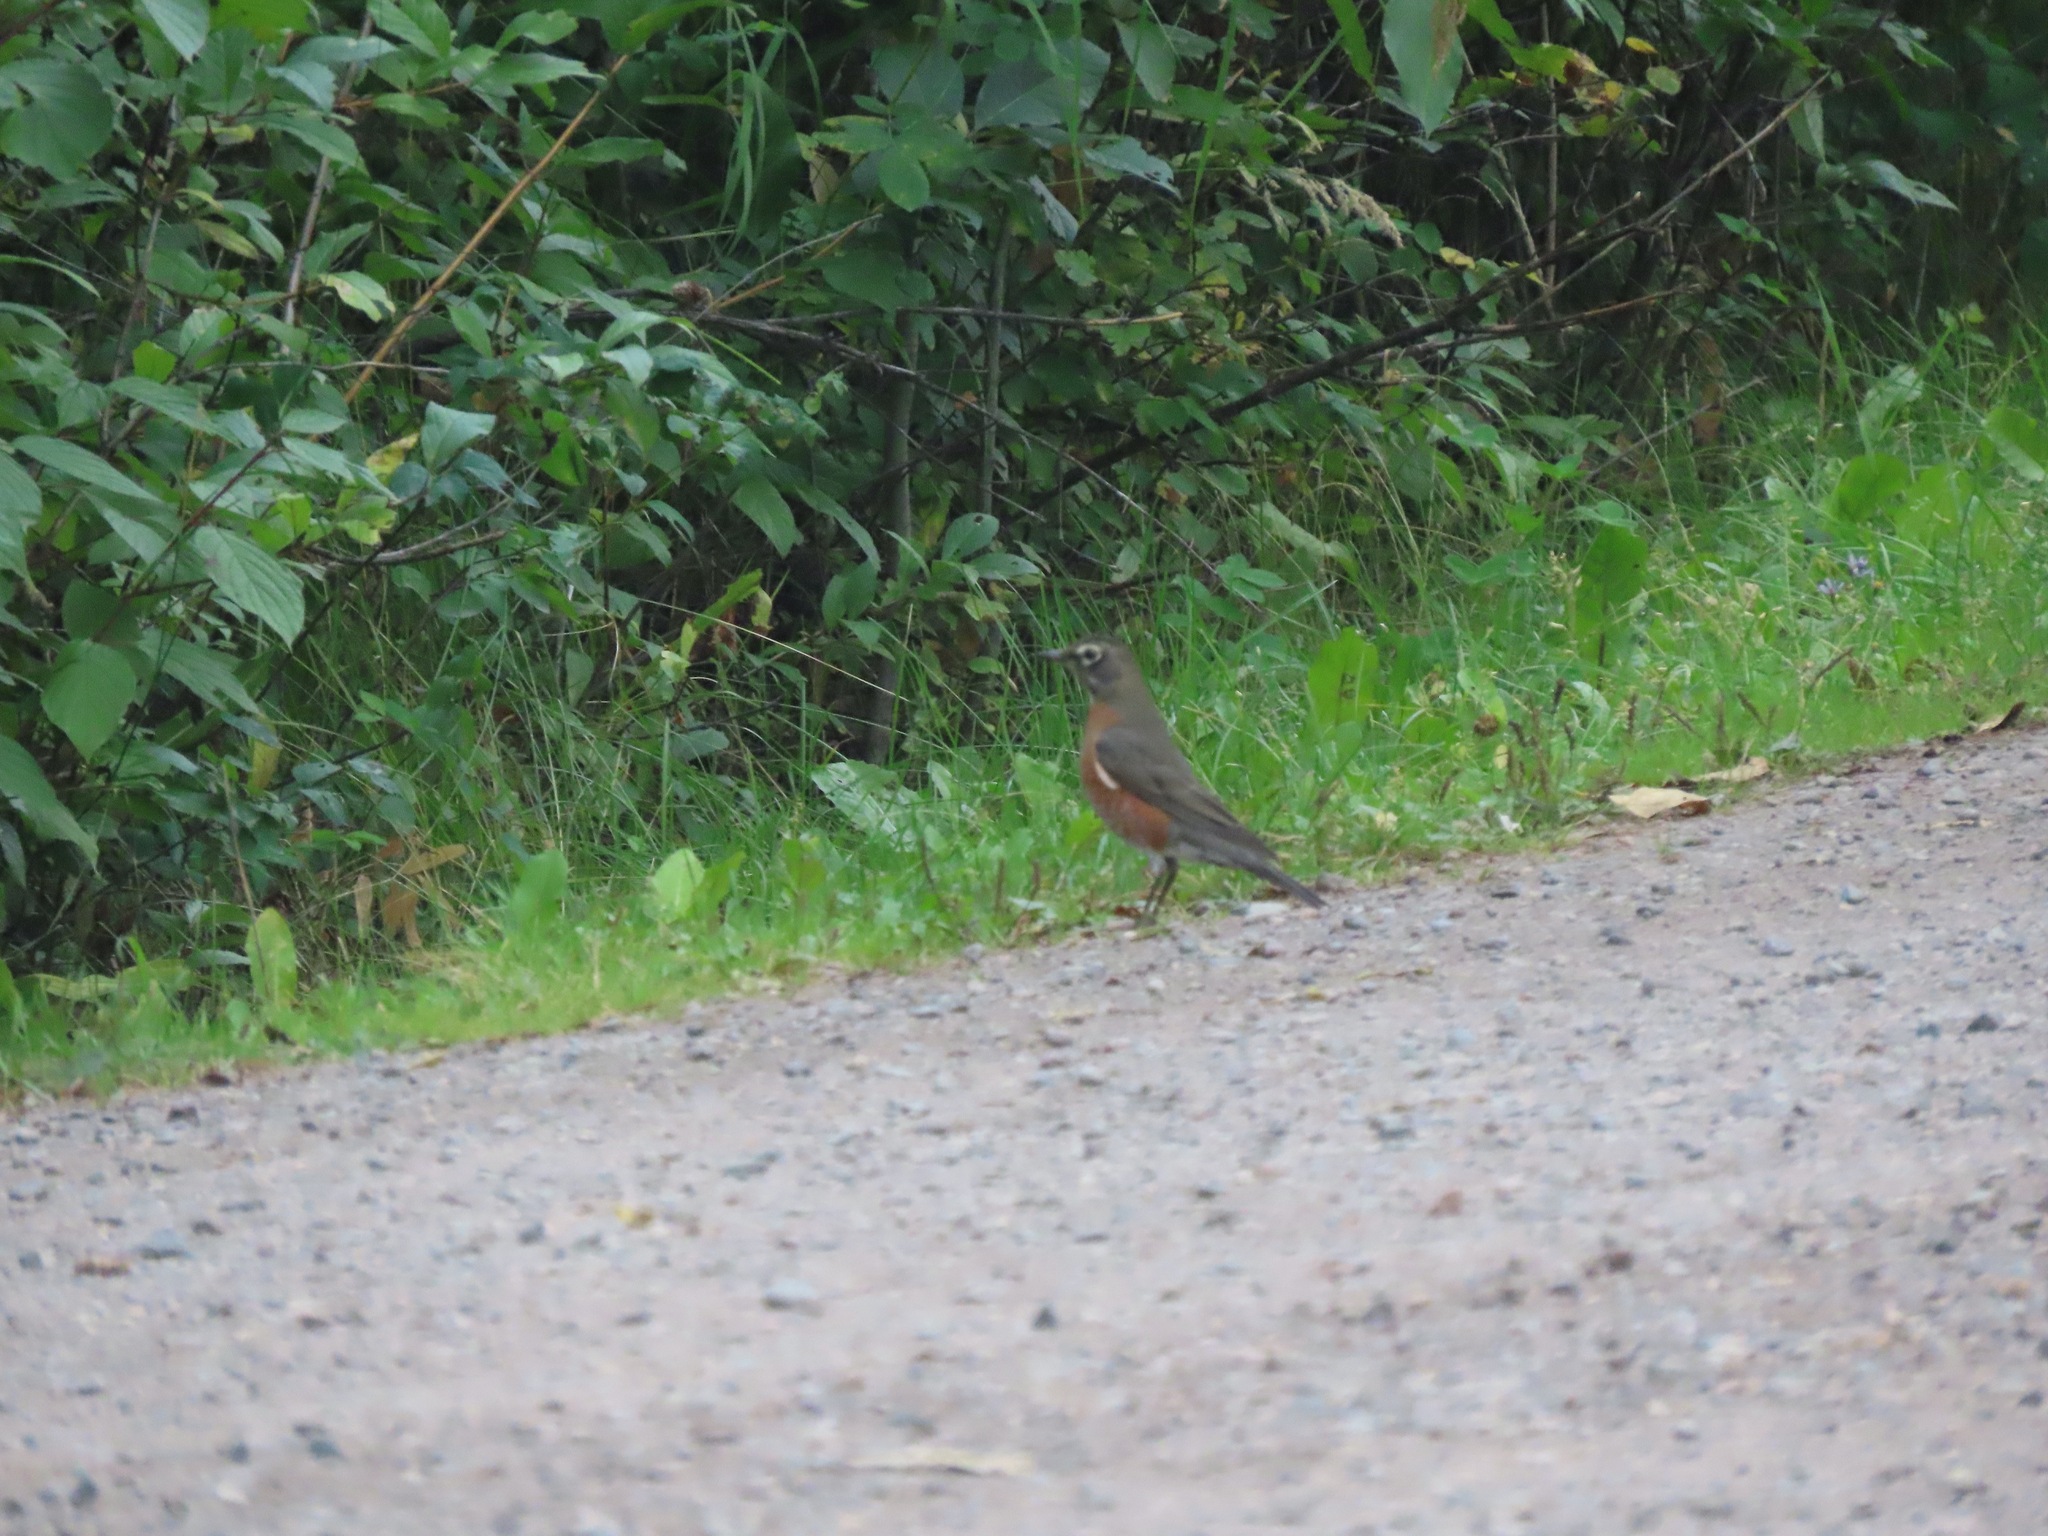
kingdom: Animalia
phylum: Chordata
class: Aves
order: Passeriformes
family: Turdidae
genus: Turdus
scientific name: Turdus migratorius
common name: American robin
